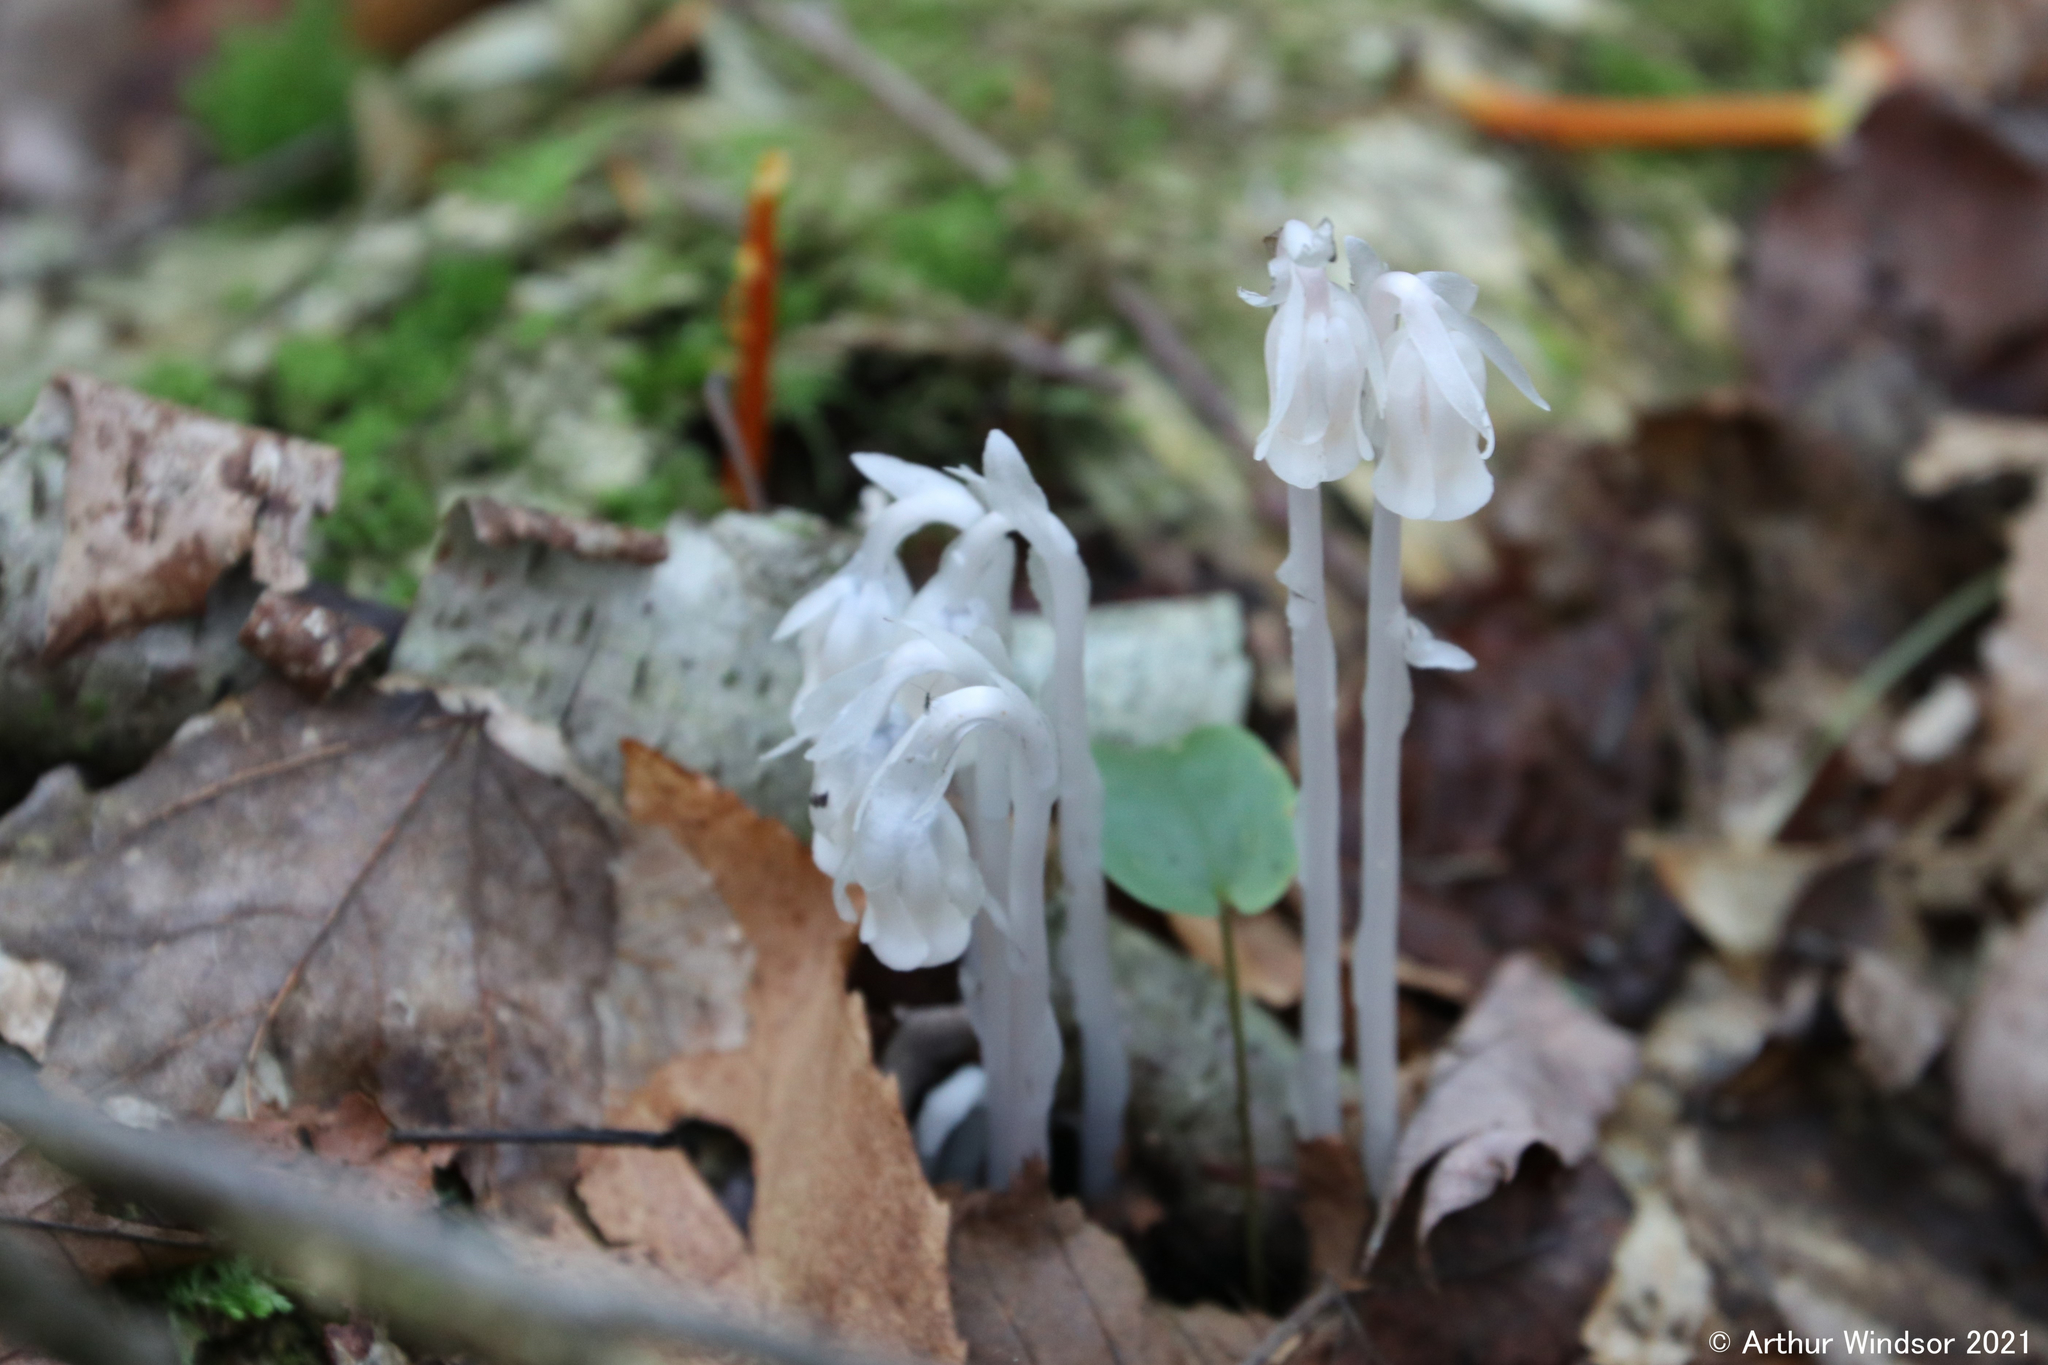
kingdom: Plantae
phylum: Tracheophyta
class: Magnoliopsida
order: Ericales
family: Ericaceae
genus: Monotropa
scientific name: Monotropa uniflora
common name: Convulsion root
